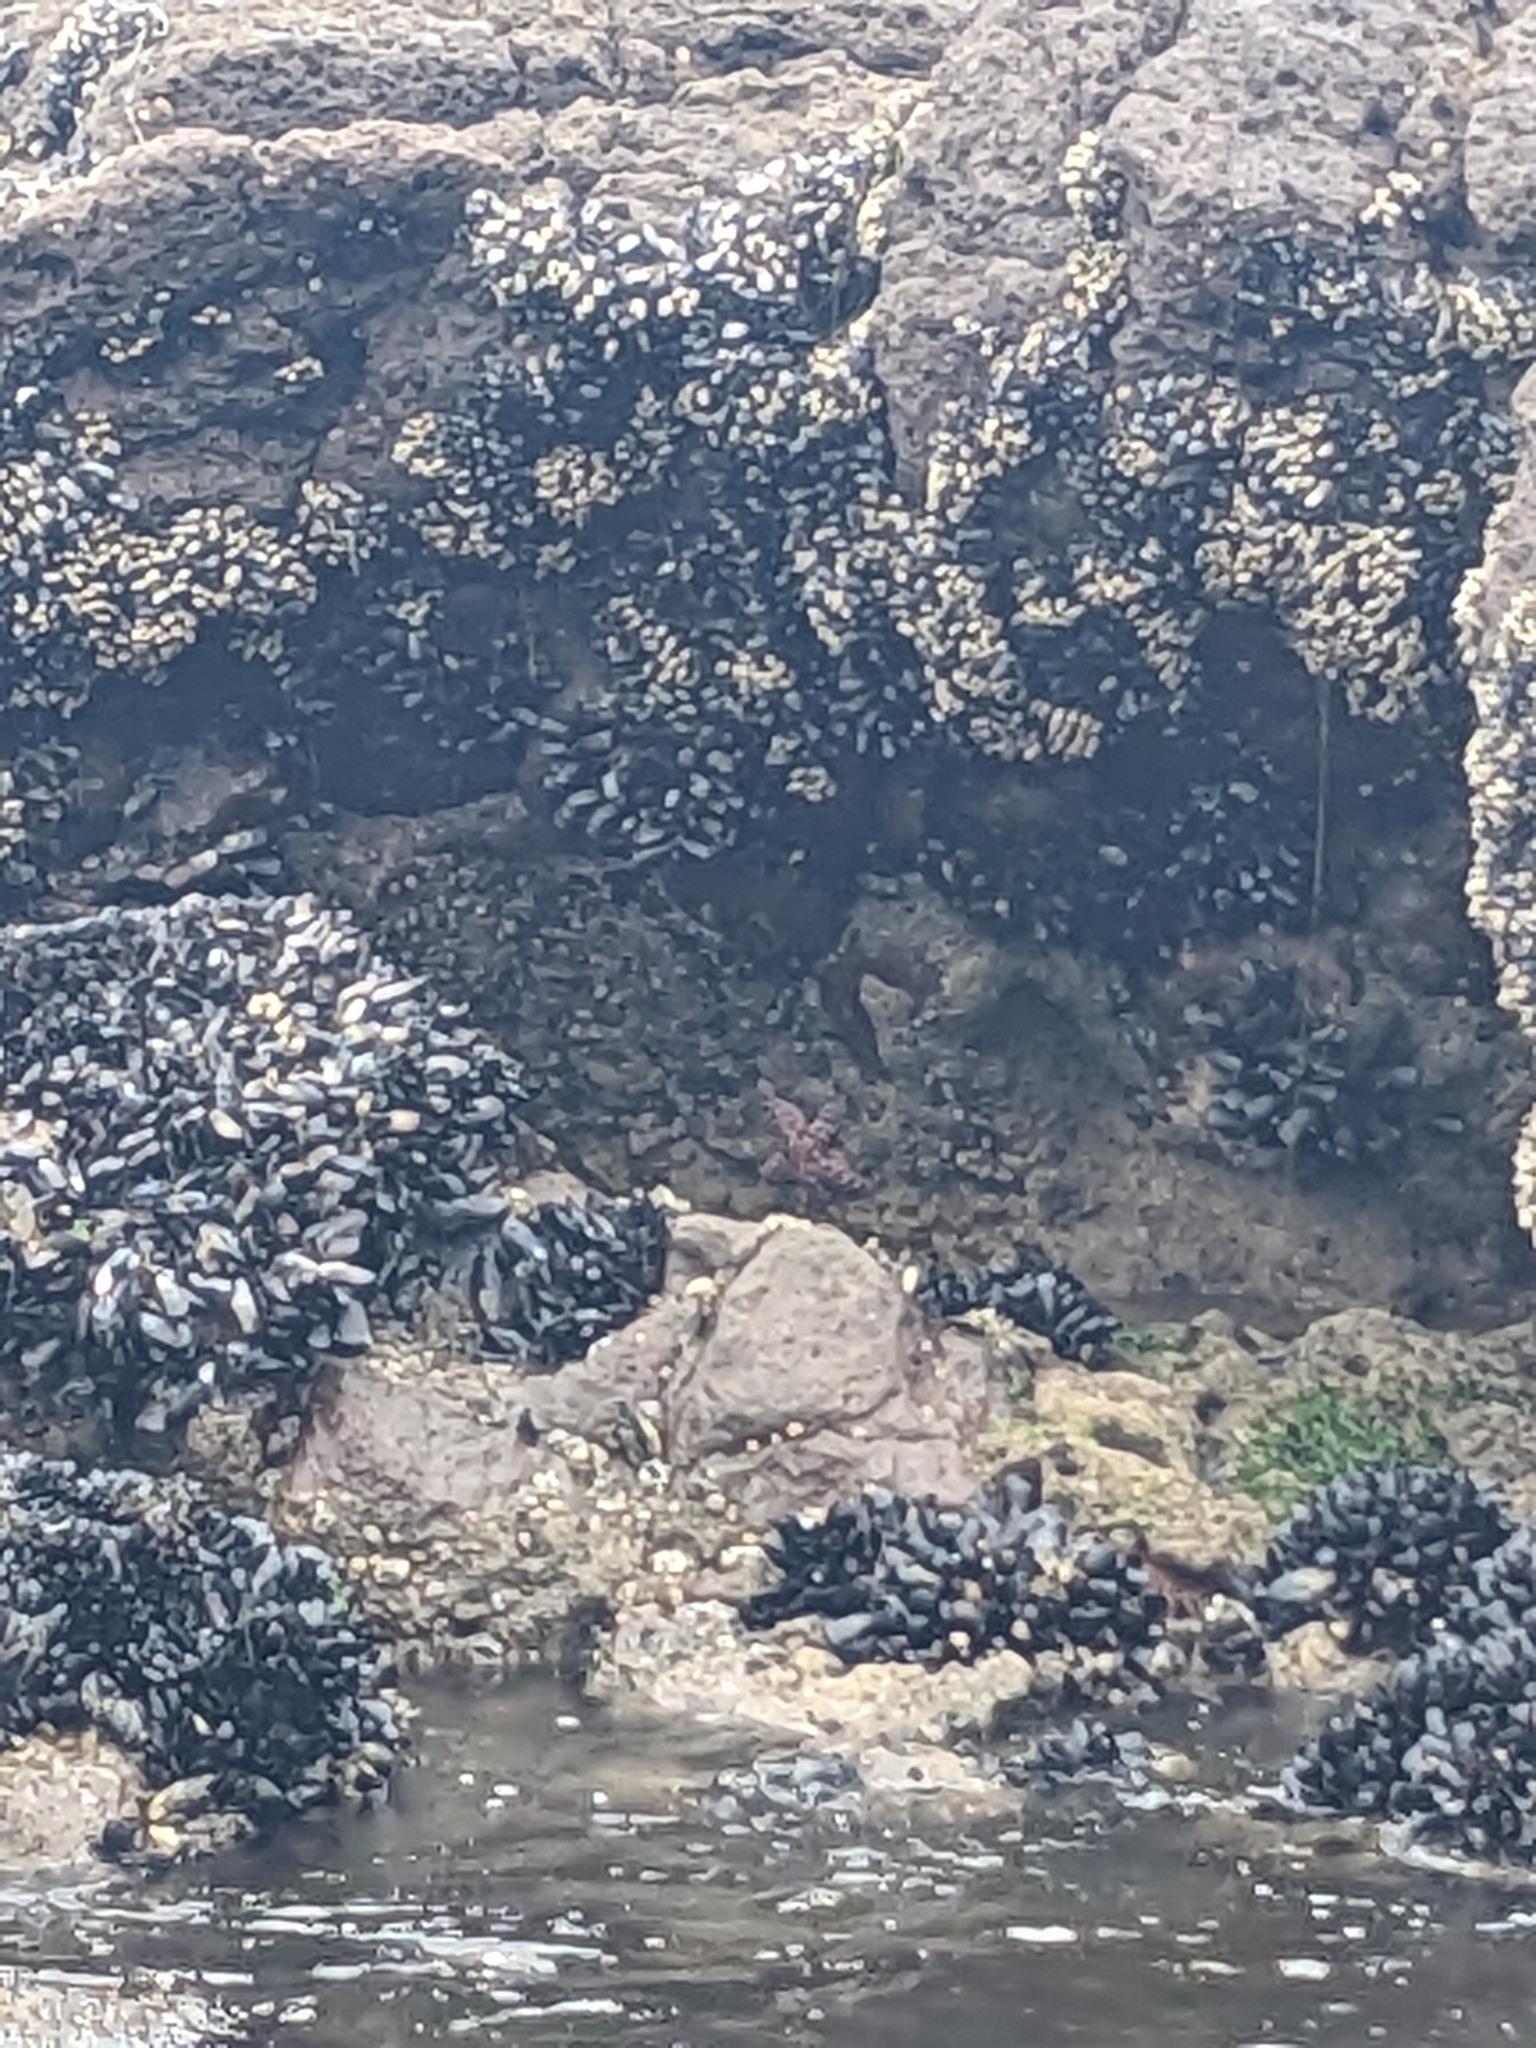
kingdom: Animalia
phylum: Echinodermata
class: Asteroidea
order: Forcipulatida
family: Asteriidae
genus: Pisaster
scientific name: Pisaster ochraceus
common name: Ochre stars
